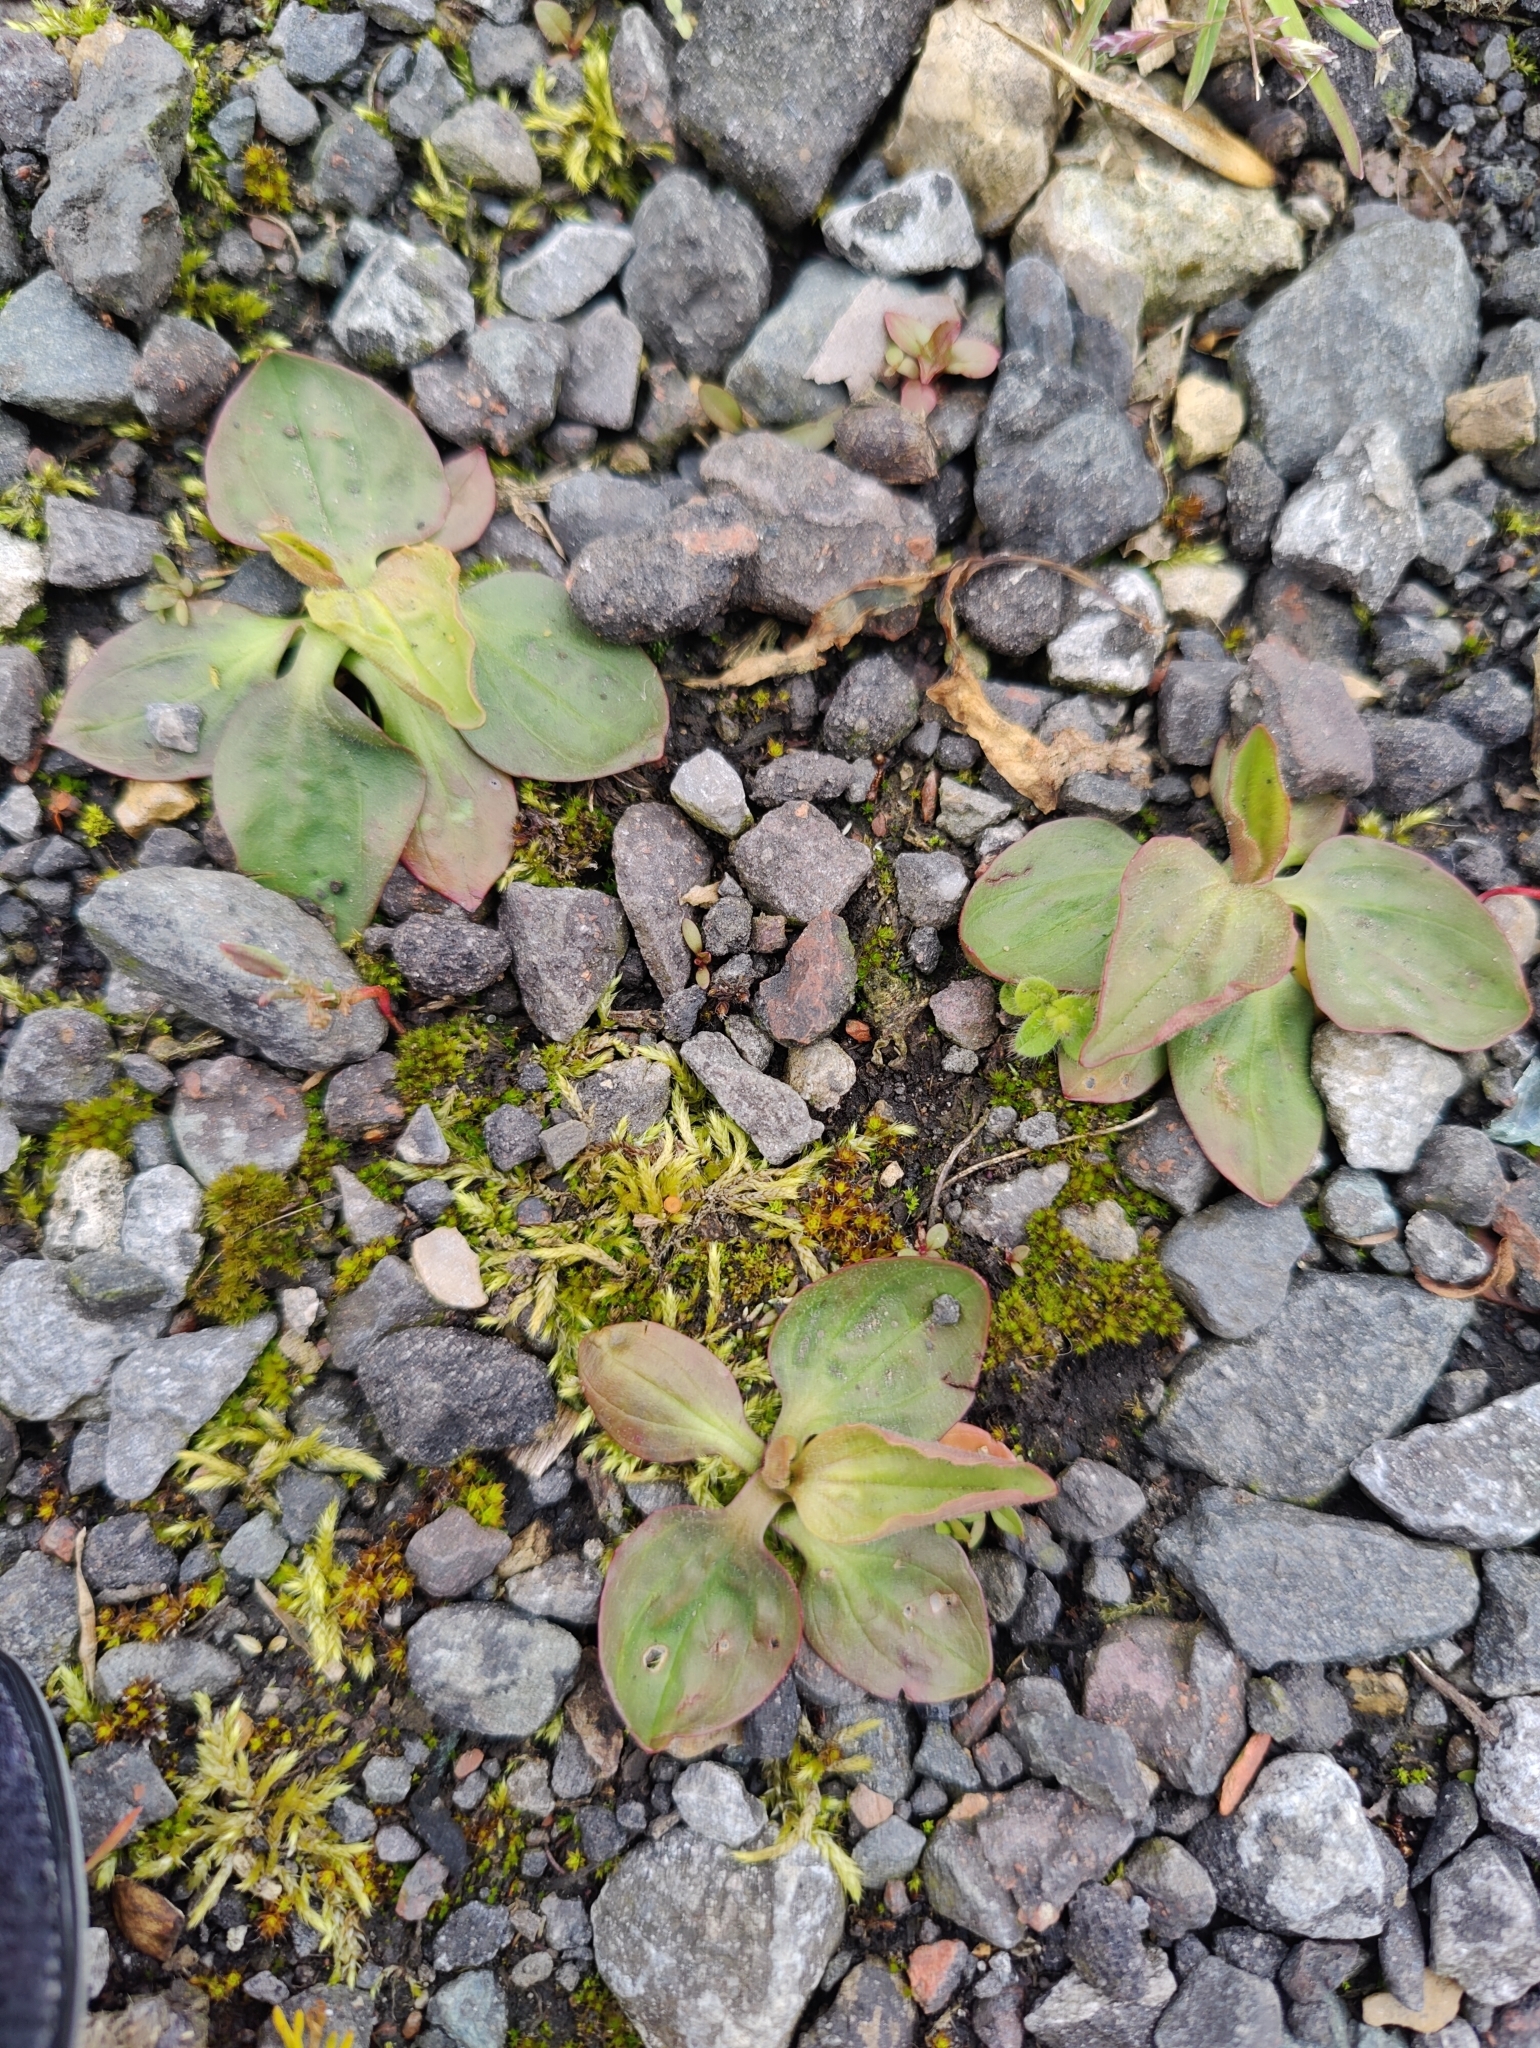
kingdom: Plantae
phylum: Tracheophyta
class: Magnoliopsida
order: Lamiales
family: Plantaginaceae
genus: Plantago
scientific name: Plantago major
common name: Common plantain
